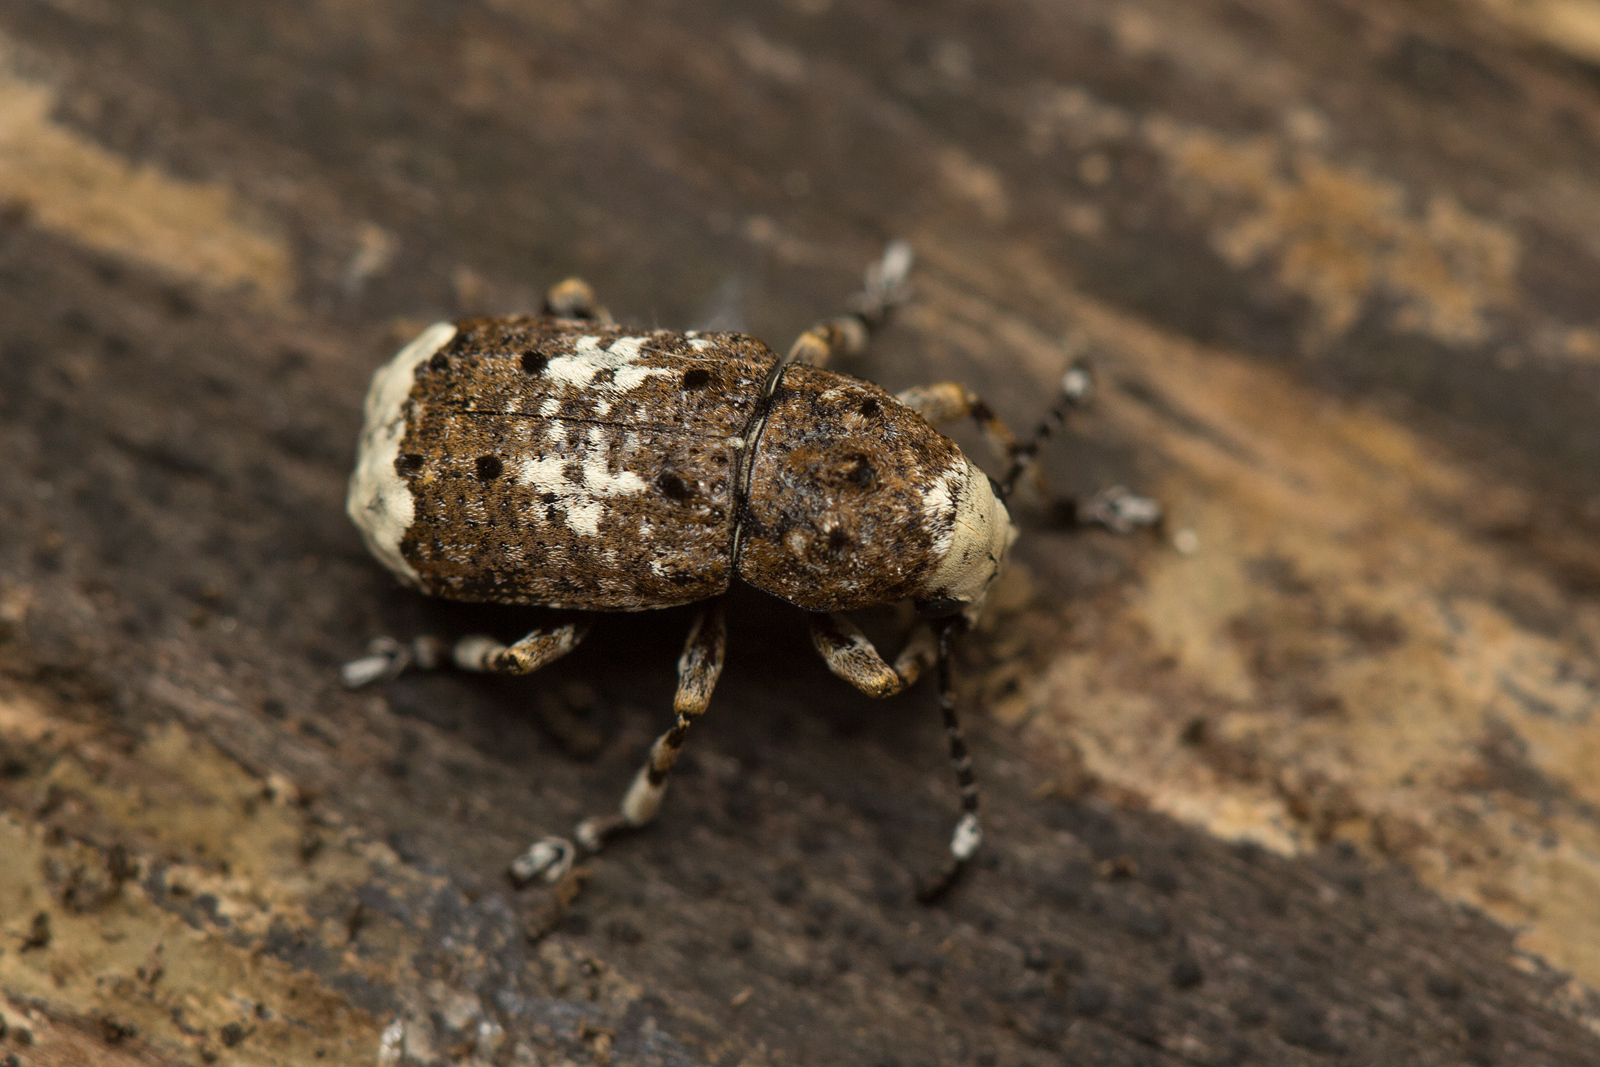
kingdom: Animalia
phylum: Arthropoda
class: Insecta
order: Coleoptera
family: Anthribidae
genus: Platystomos
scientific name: Platystomos albinus
